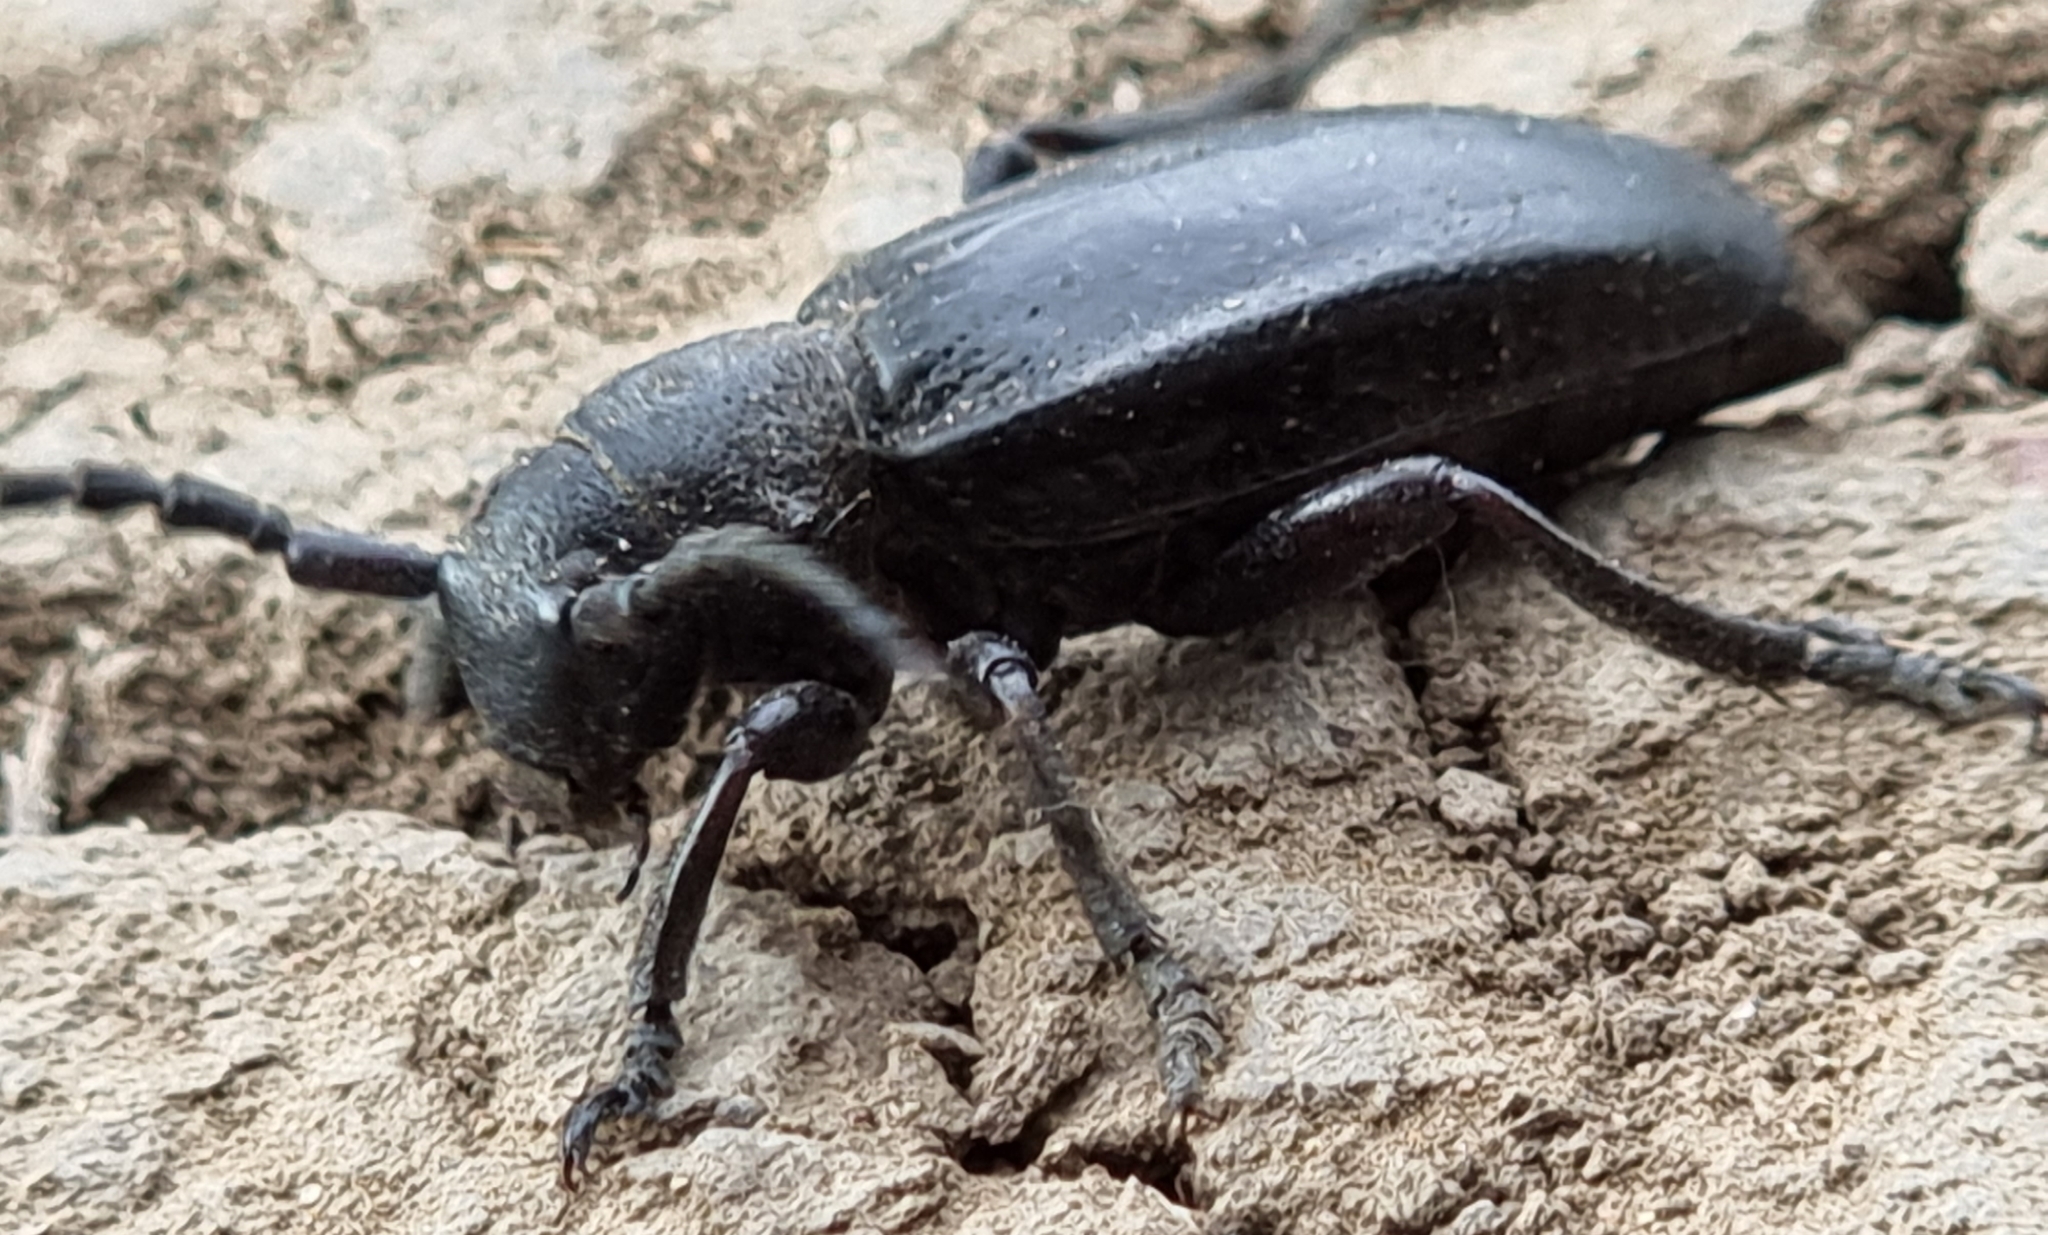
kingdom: Animalia
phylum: Arthropoda
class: Insecta
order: Coleoptera
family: Cerambycidae
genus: Dorcadion
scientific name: Dorcadion carinatum
